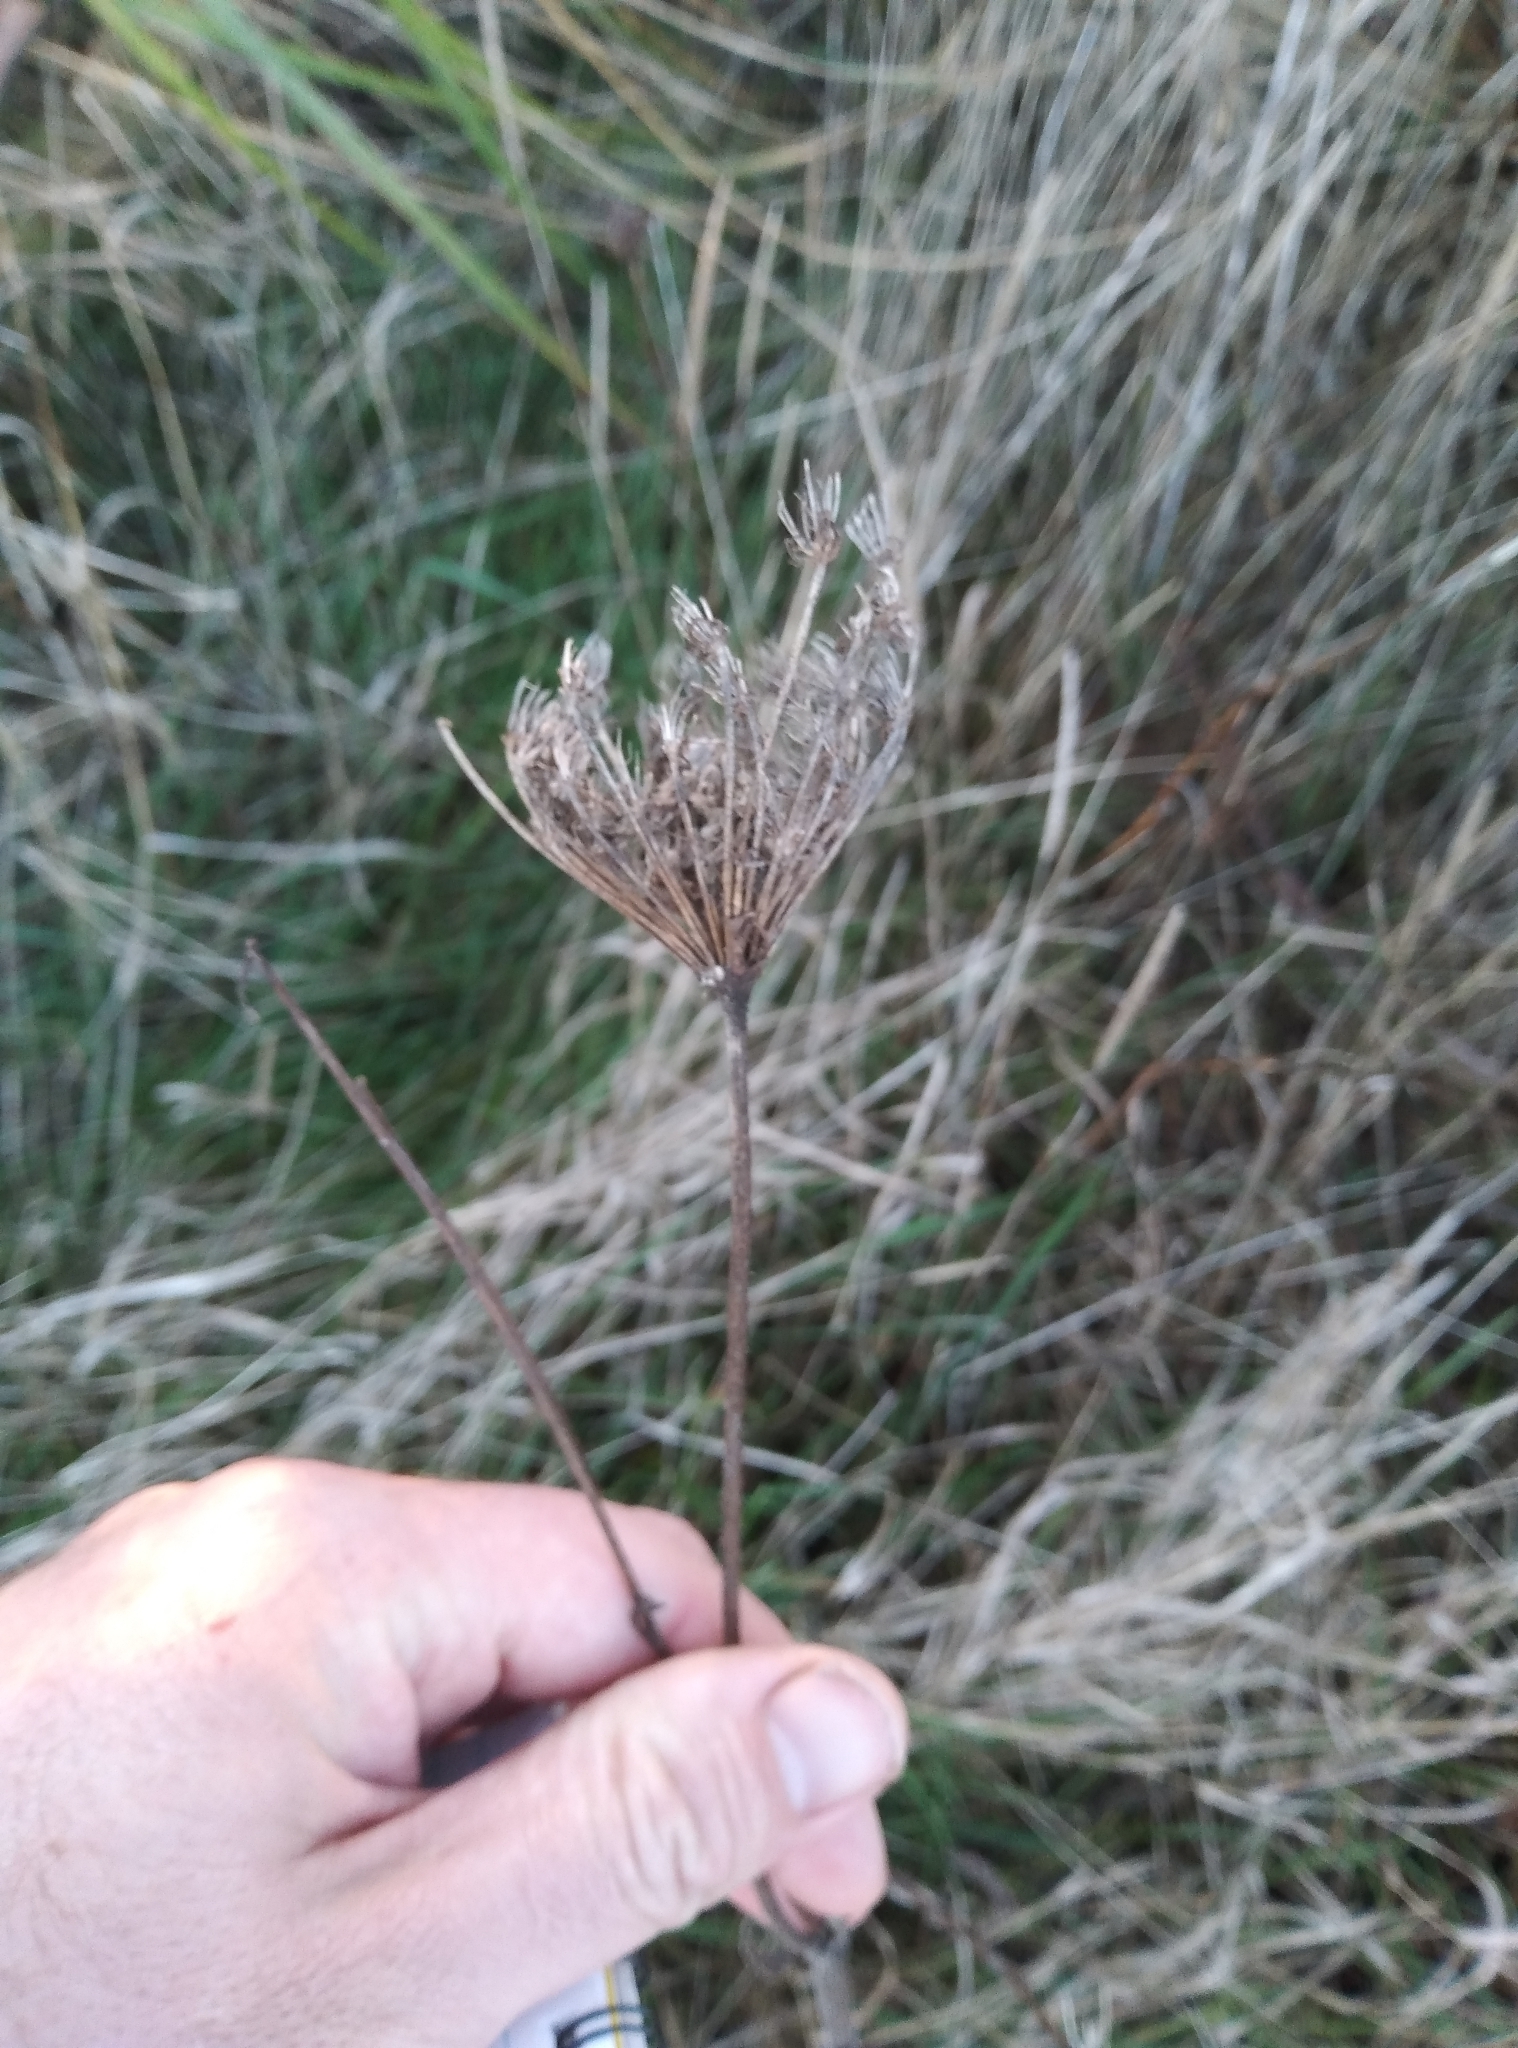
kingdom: Plantae
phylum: Tracheophyta
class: Magnoliopsida
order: Apiales
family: Apiaceae
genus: Daucus
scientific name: Daucus carota
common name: Wild carrot
